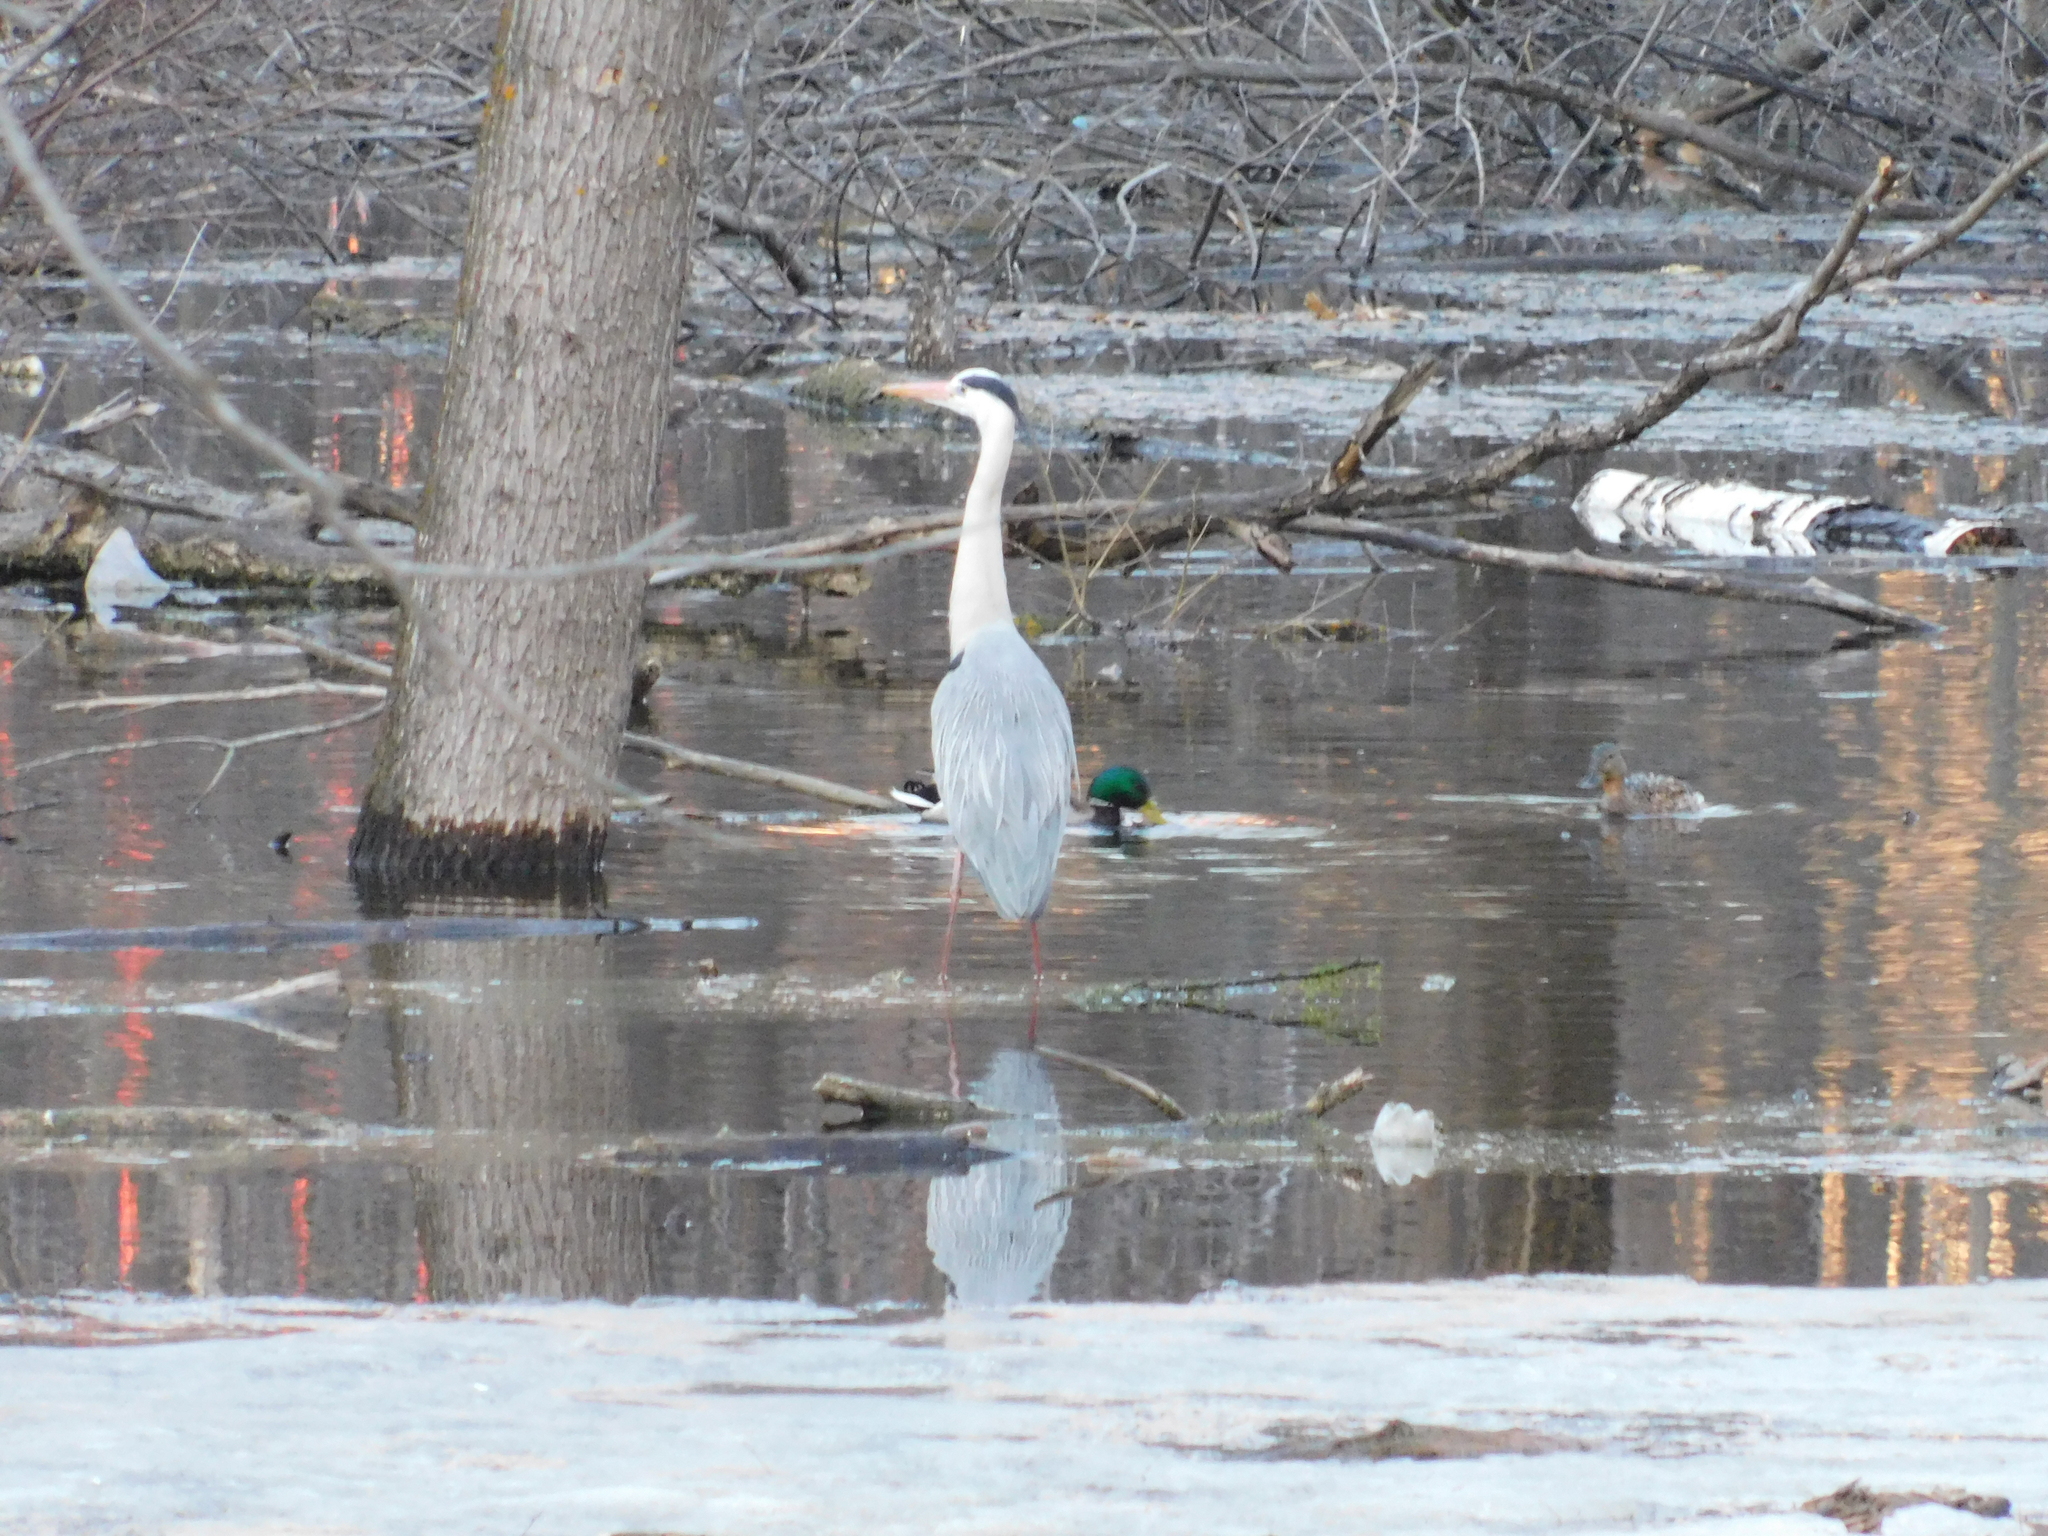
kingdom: Animalia
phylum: Chordata
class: Aves
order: Anseriformes
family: Anatidae
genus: Anas
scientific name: Anas platyrhynchos
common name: Mallard
